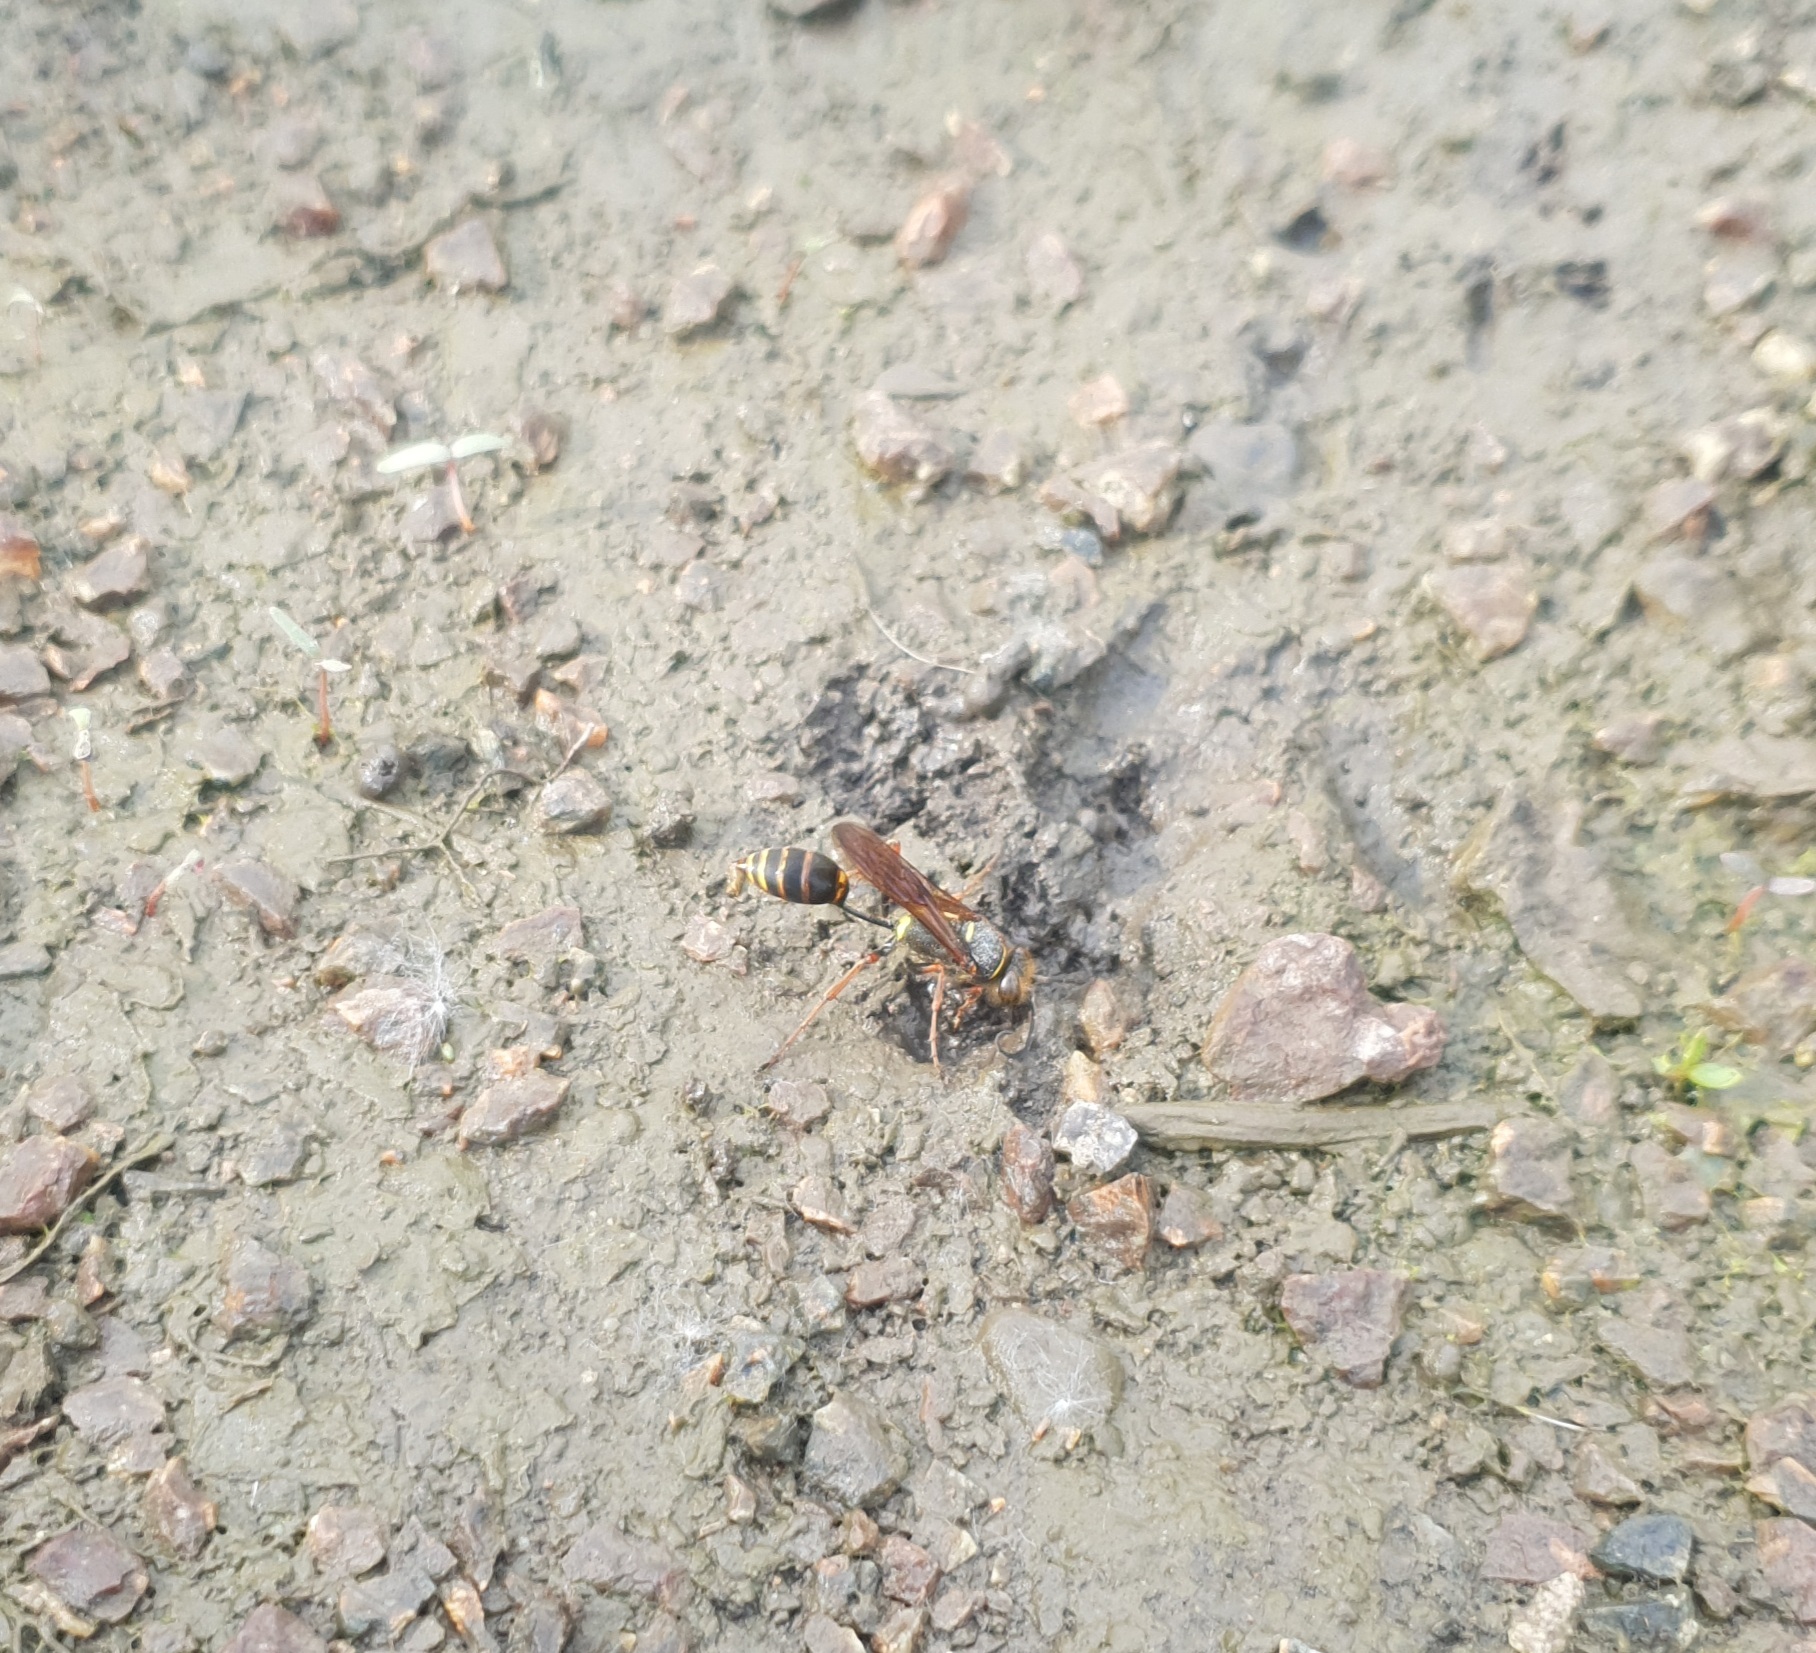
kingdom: Animalia
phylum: Arthropoda
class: Insecta
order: Hymenoptera
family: Sphecidae
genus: Sceliphron
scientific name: Sceliphron curvatum
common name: Pèlopèe
